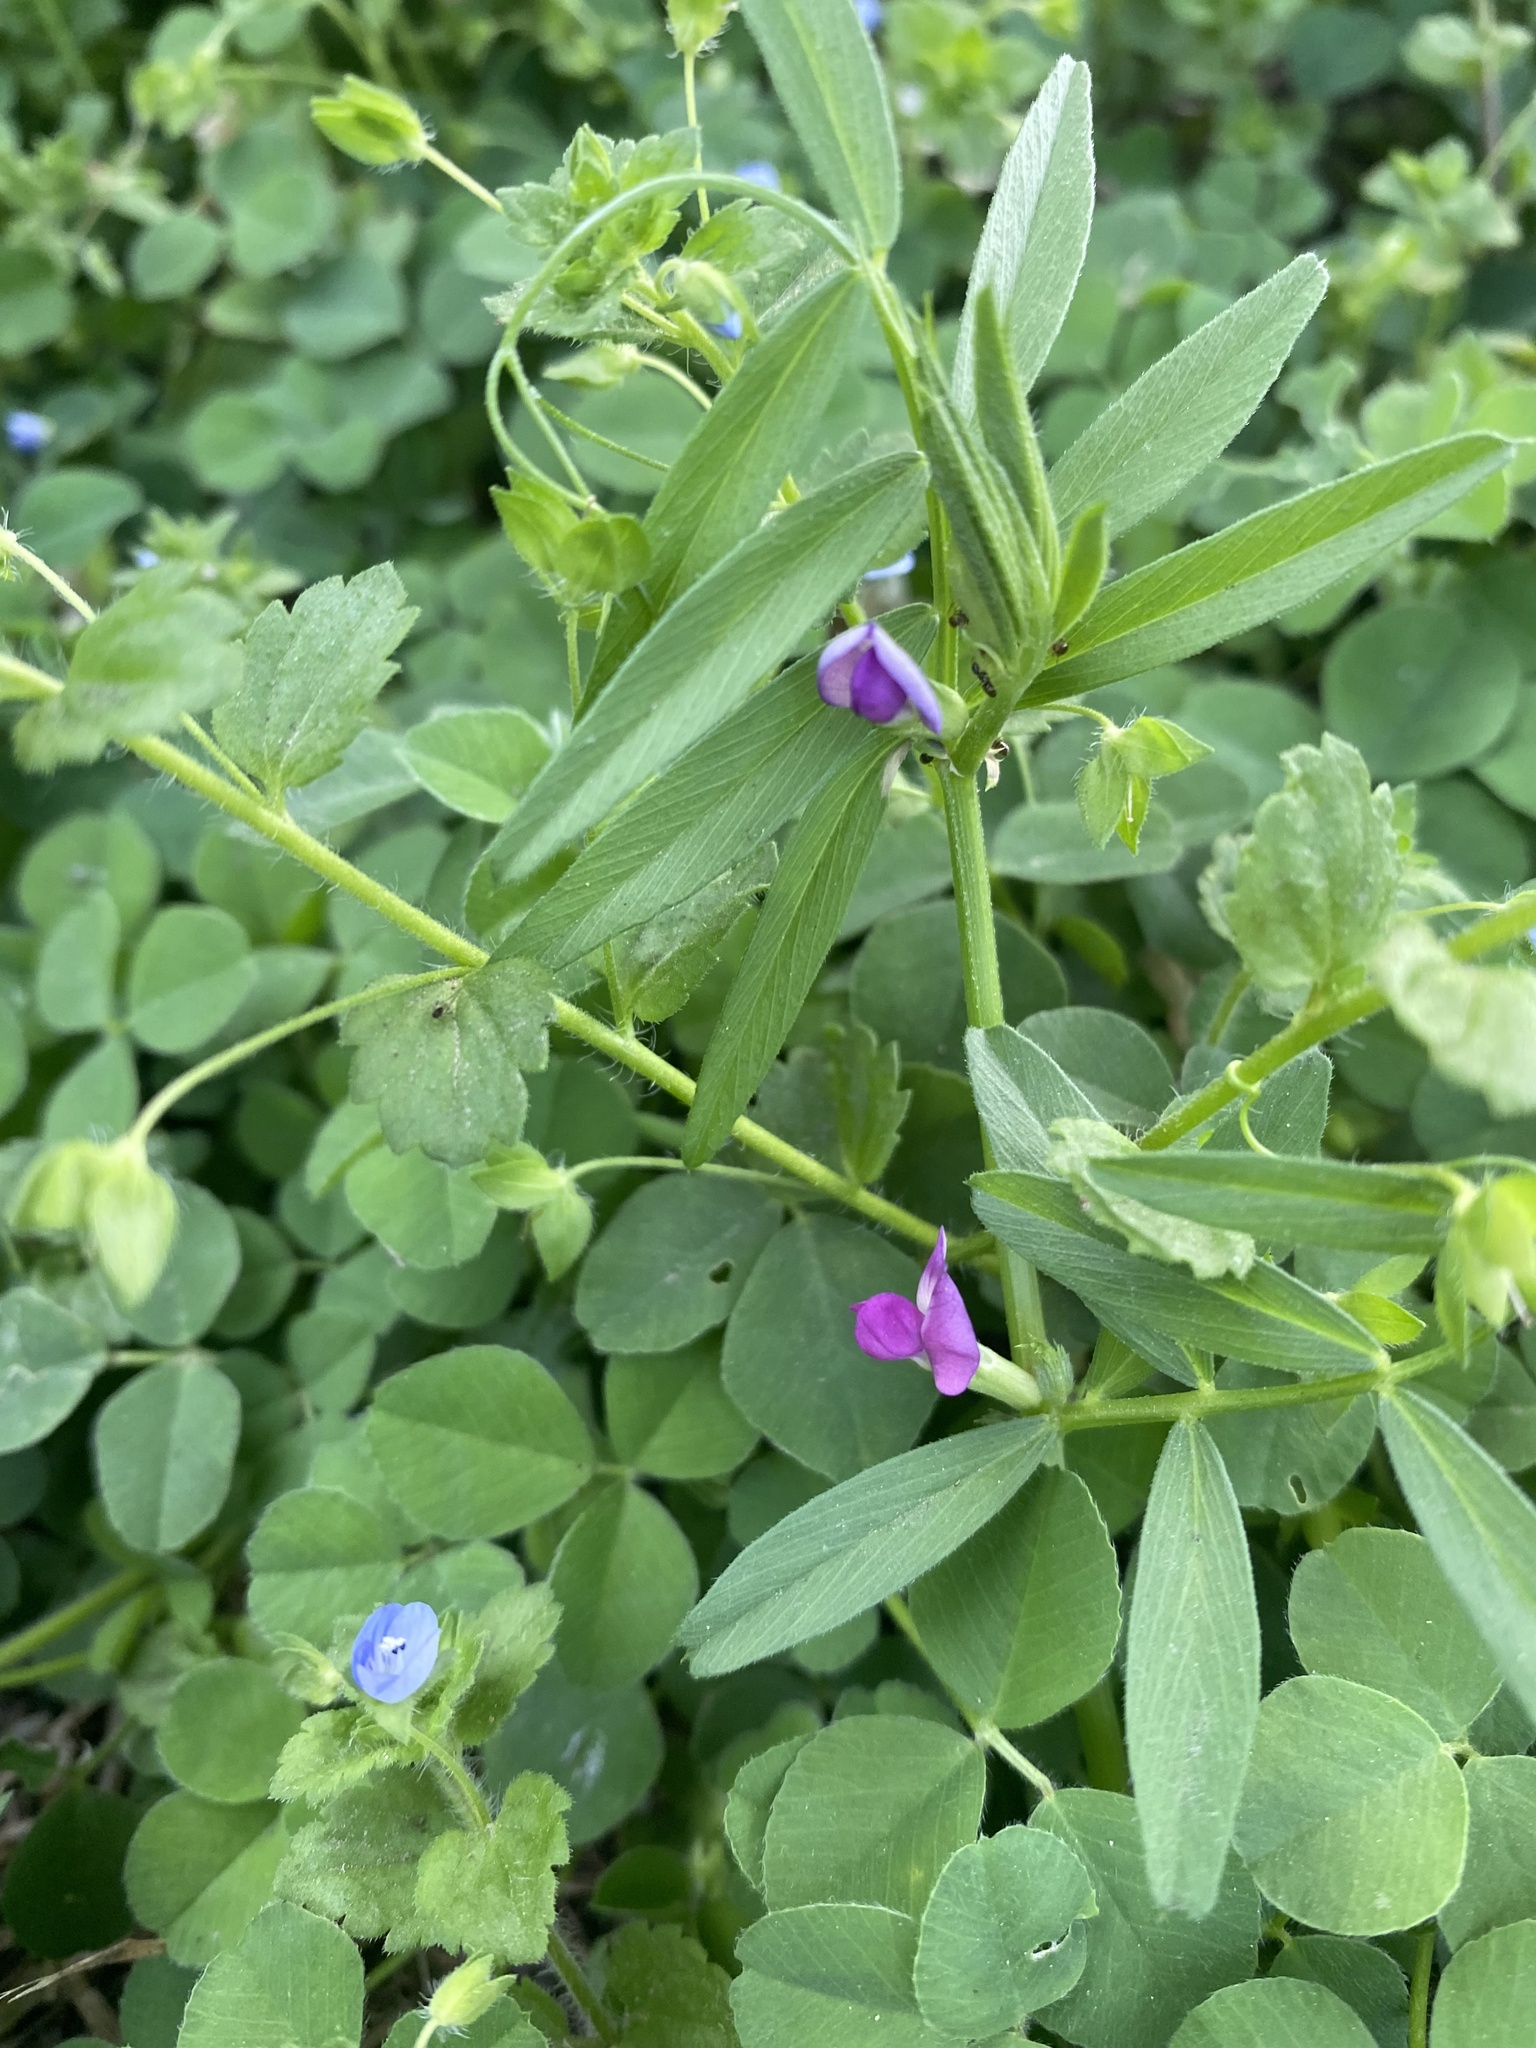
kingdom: Plantae
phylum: Tracheophyta
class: Magnoliopsida
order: Fabales
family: Fabaceae
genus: Vicia
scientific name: Vicia sativa
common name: Garden vetch
